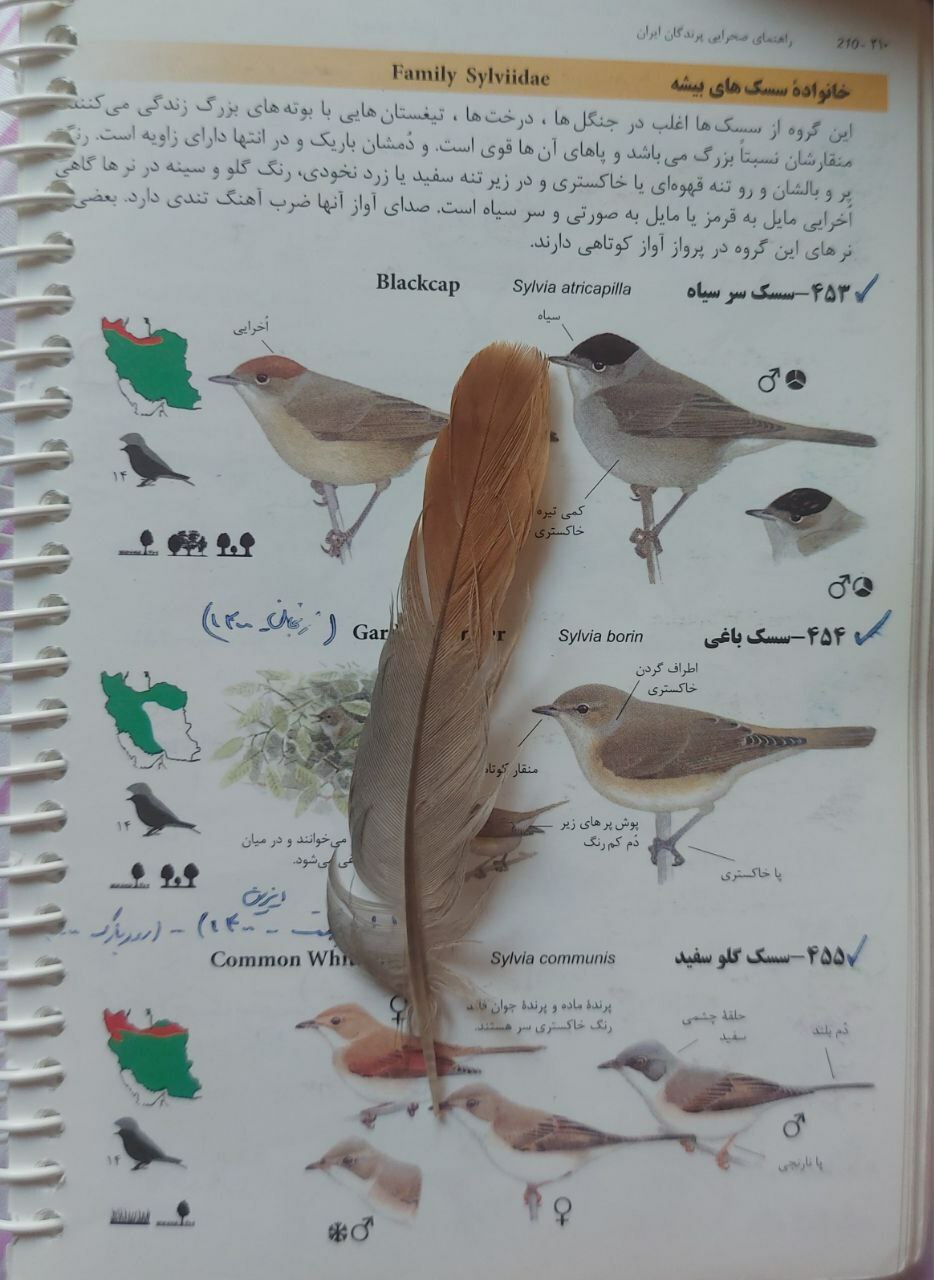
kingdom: Animalia
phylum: Chordata
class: Aves
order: Galliformes
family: Phasianidae
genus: Alectoris
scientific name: Alectoris chukar
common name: Chukar
